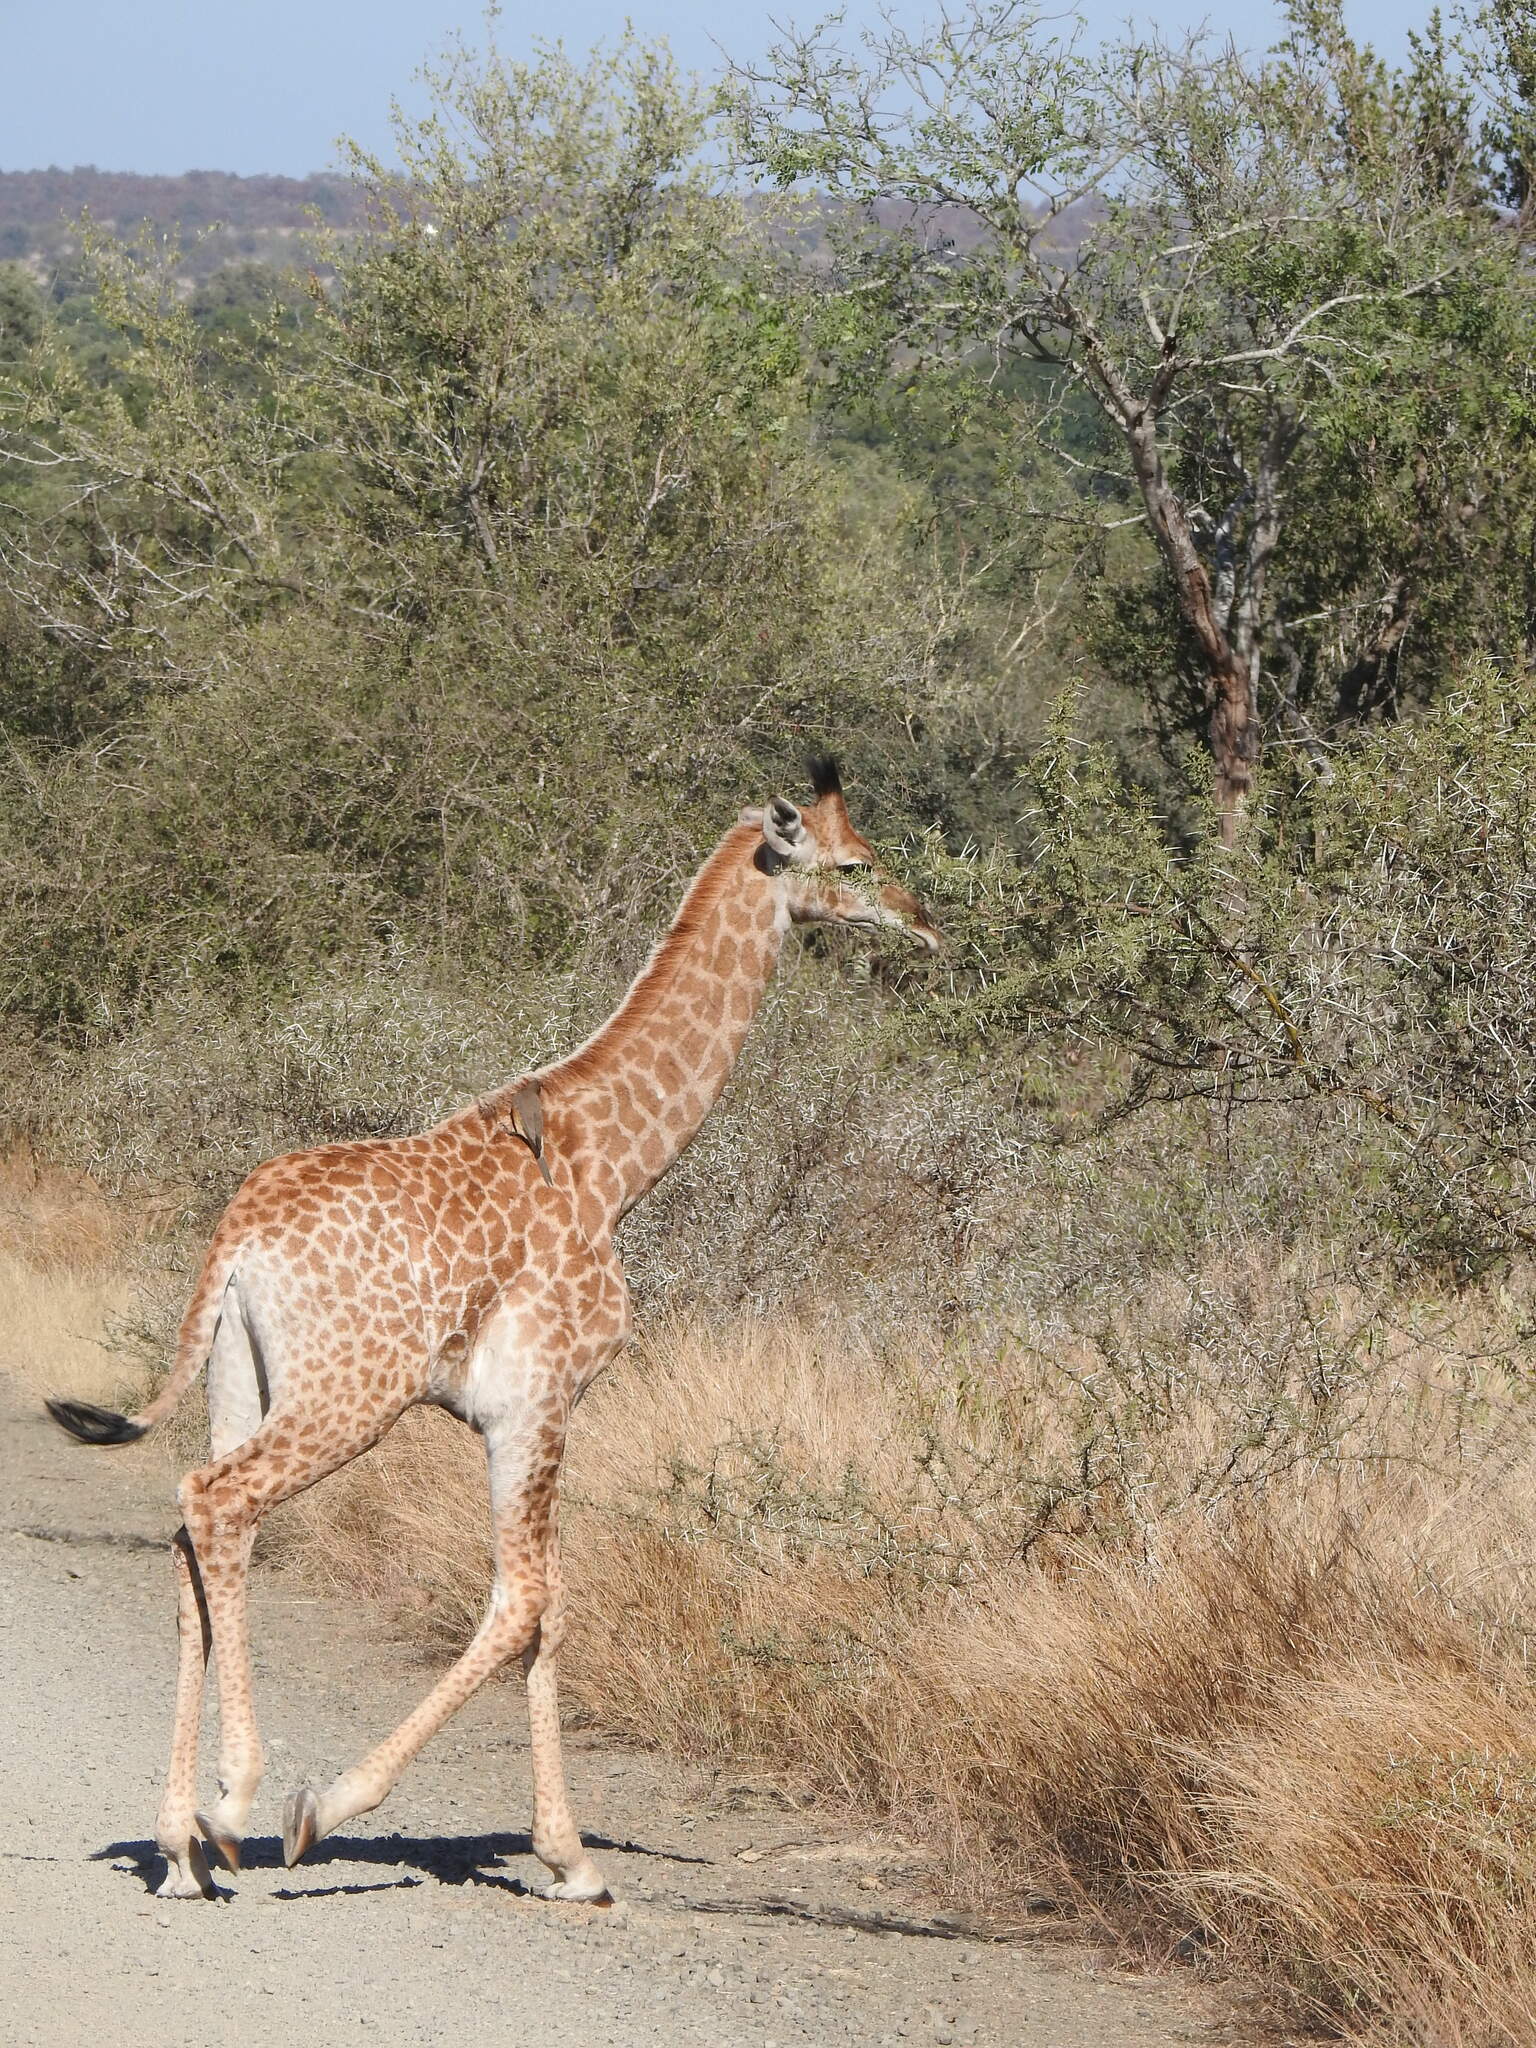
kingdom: Animalia
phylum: Chordata
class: Mammalia
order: Artiodactyla
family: Giraffidae
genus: Giraffa
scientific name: Giraffa giraffa
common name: Southern giraffe
